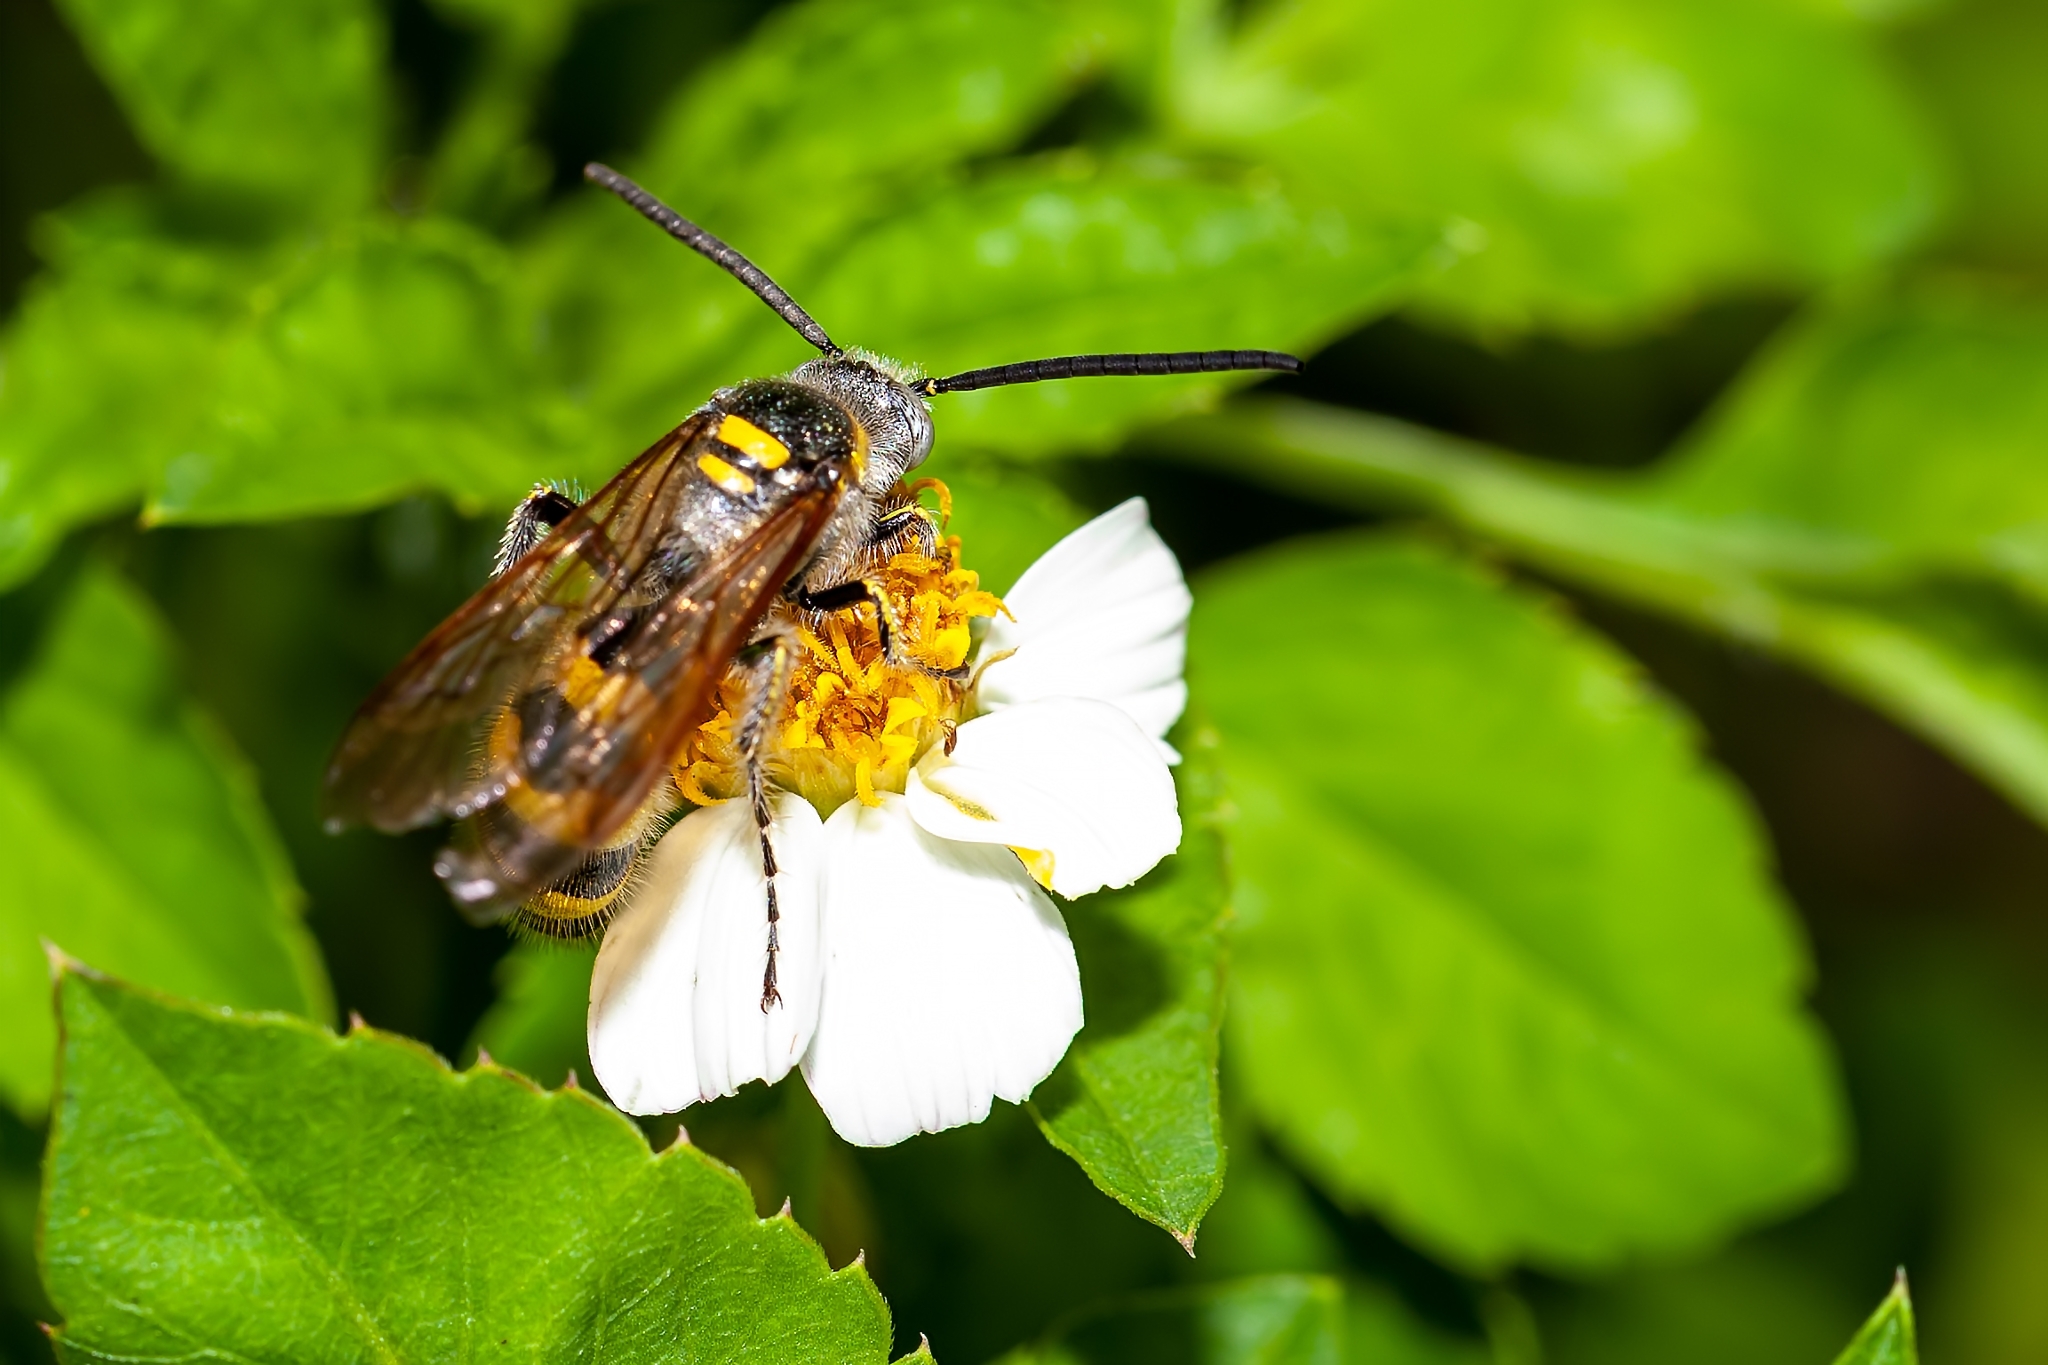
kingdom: Animalia
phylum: Arthropoda
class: Insecta
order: Hymenoptera
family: Scoliidae
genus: Dielis
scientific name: Dielis
